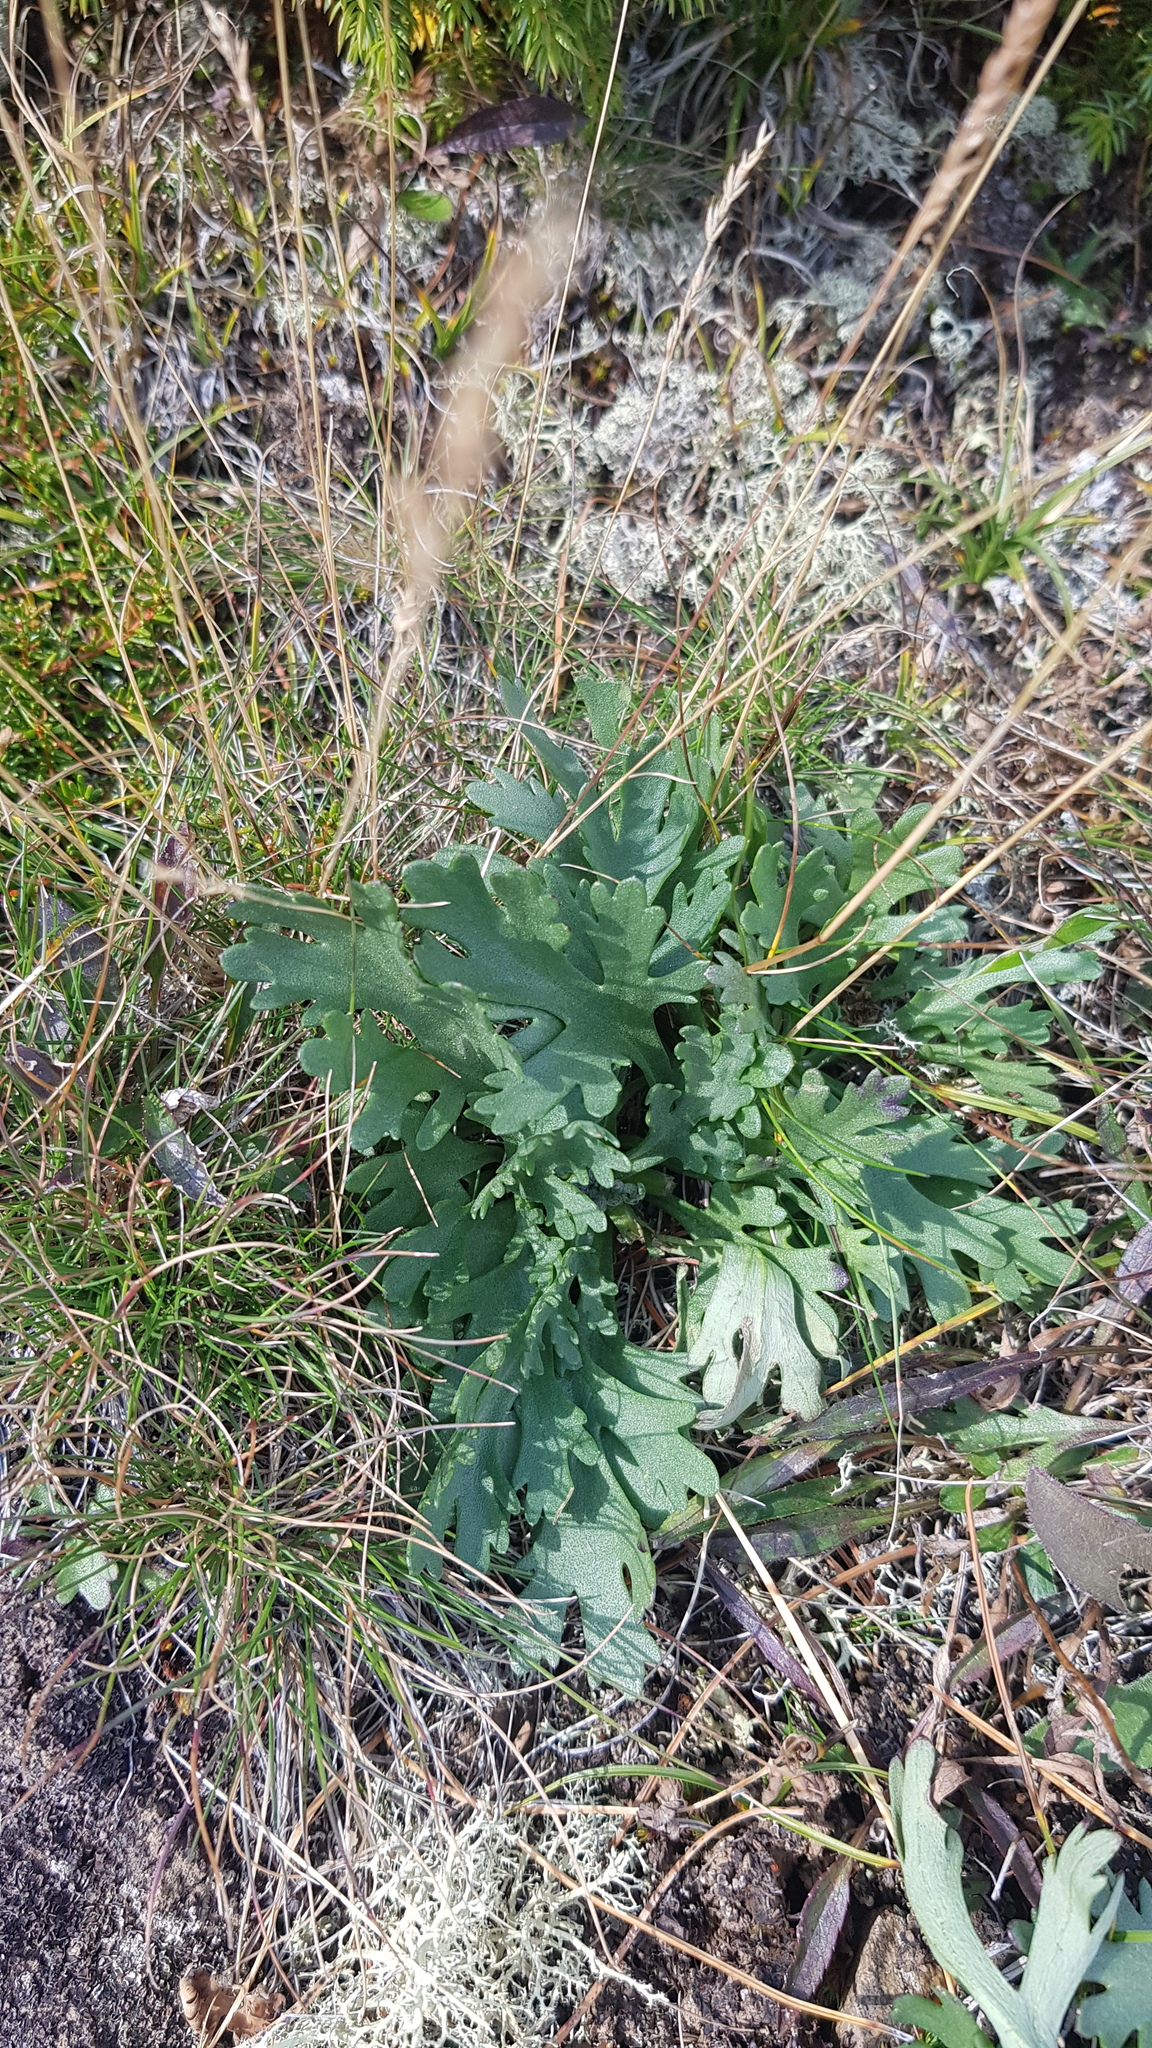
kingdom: Plantae
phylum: Tracheophyta
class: Magnoliopsida
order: Ranunculales
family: Papaveraceae
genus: Papaver
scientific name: Papaver nudicaule
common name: Arctic poppy
